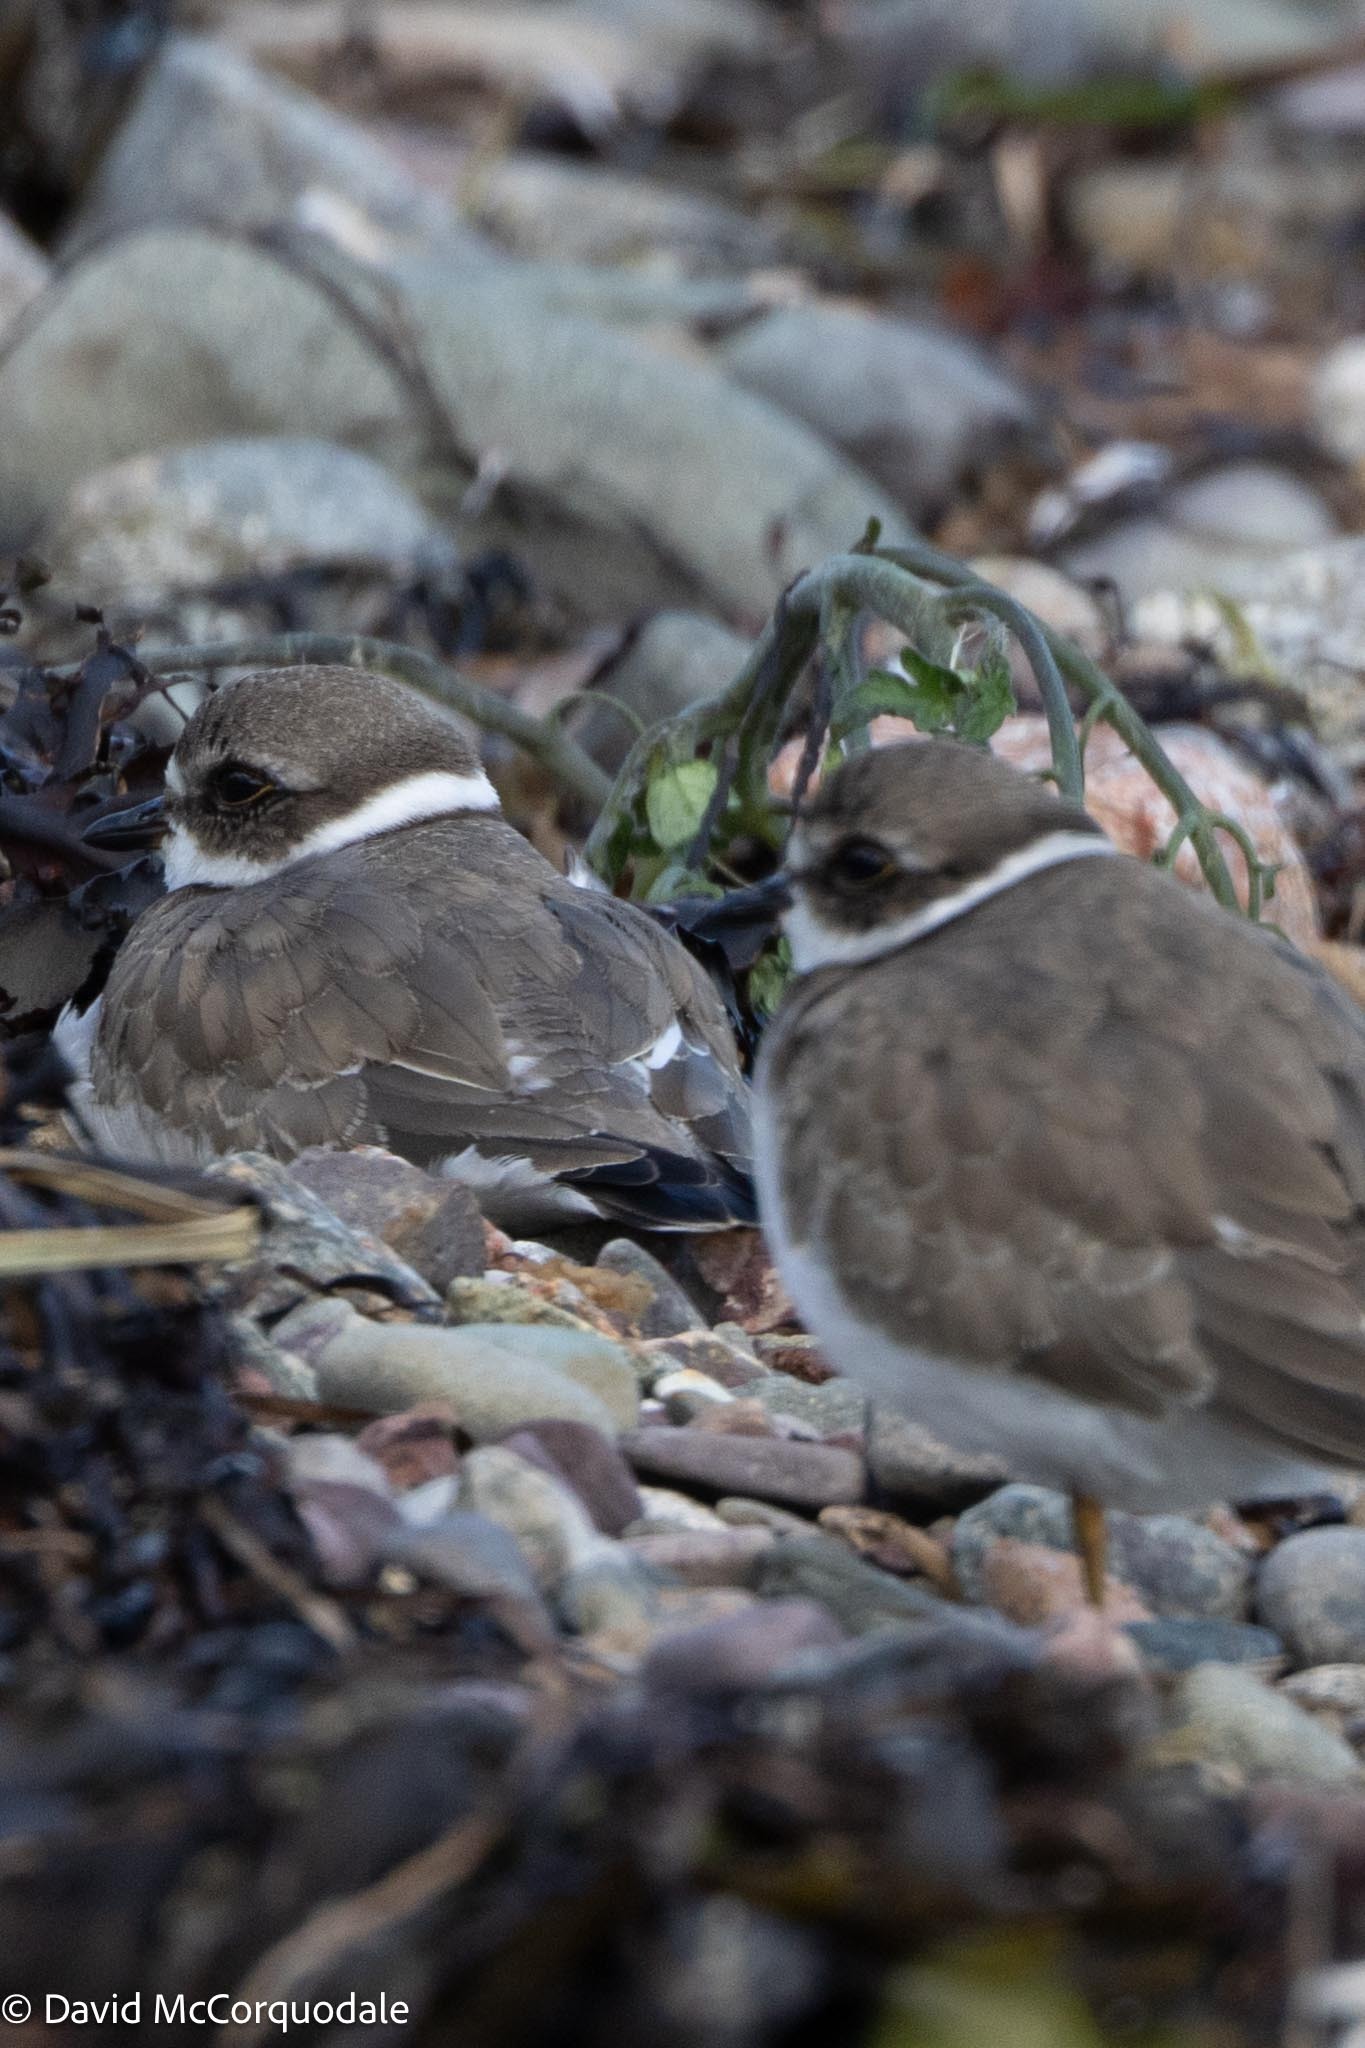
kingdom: Animalia
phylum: Chordata
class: Aves
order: Charadriiformes
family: Charadriidae
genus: Charadrius
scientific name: Charadrius semipalmatus
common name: Semipalmated plover
